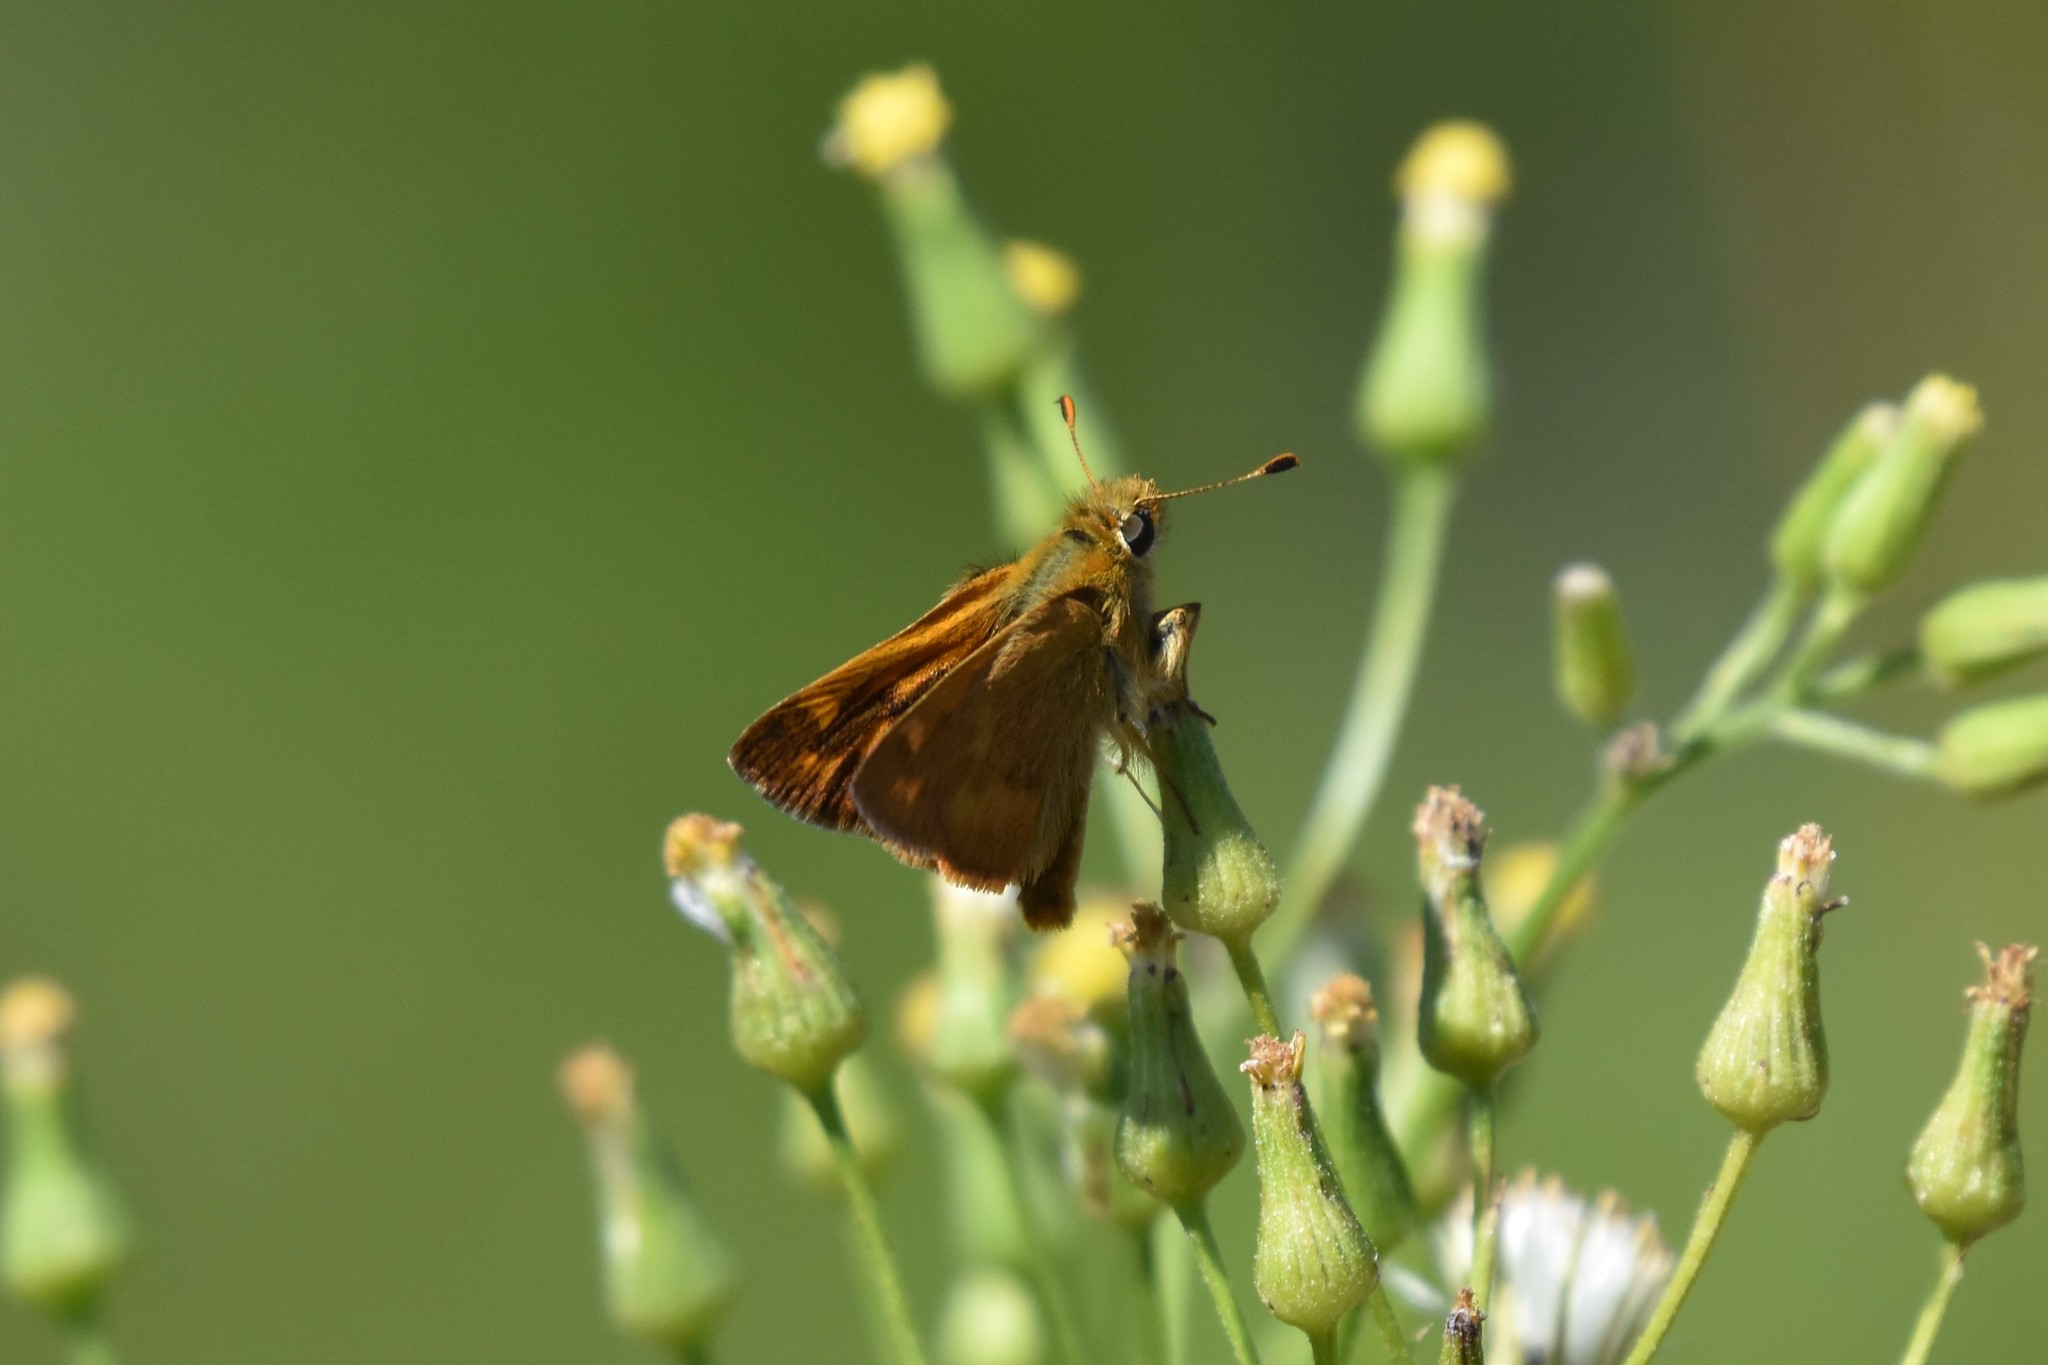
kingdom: Animalia
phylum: Arthropoda
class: Insecta
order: Lepidoptera
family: Hesperiidae
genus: Ochlodes
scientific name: Ochlodes sylvanoides
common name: Woodland skipper
